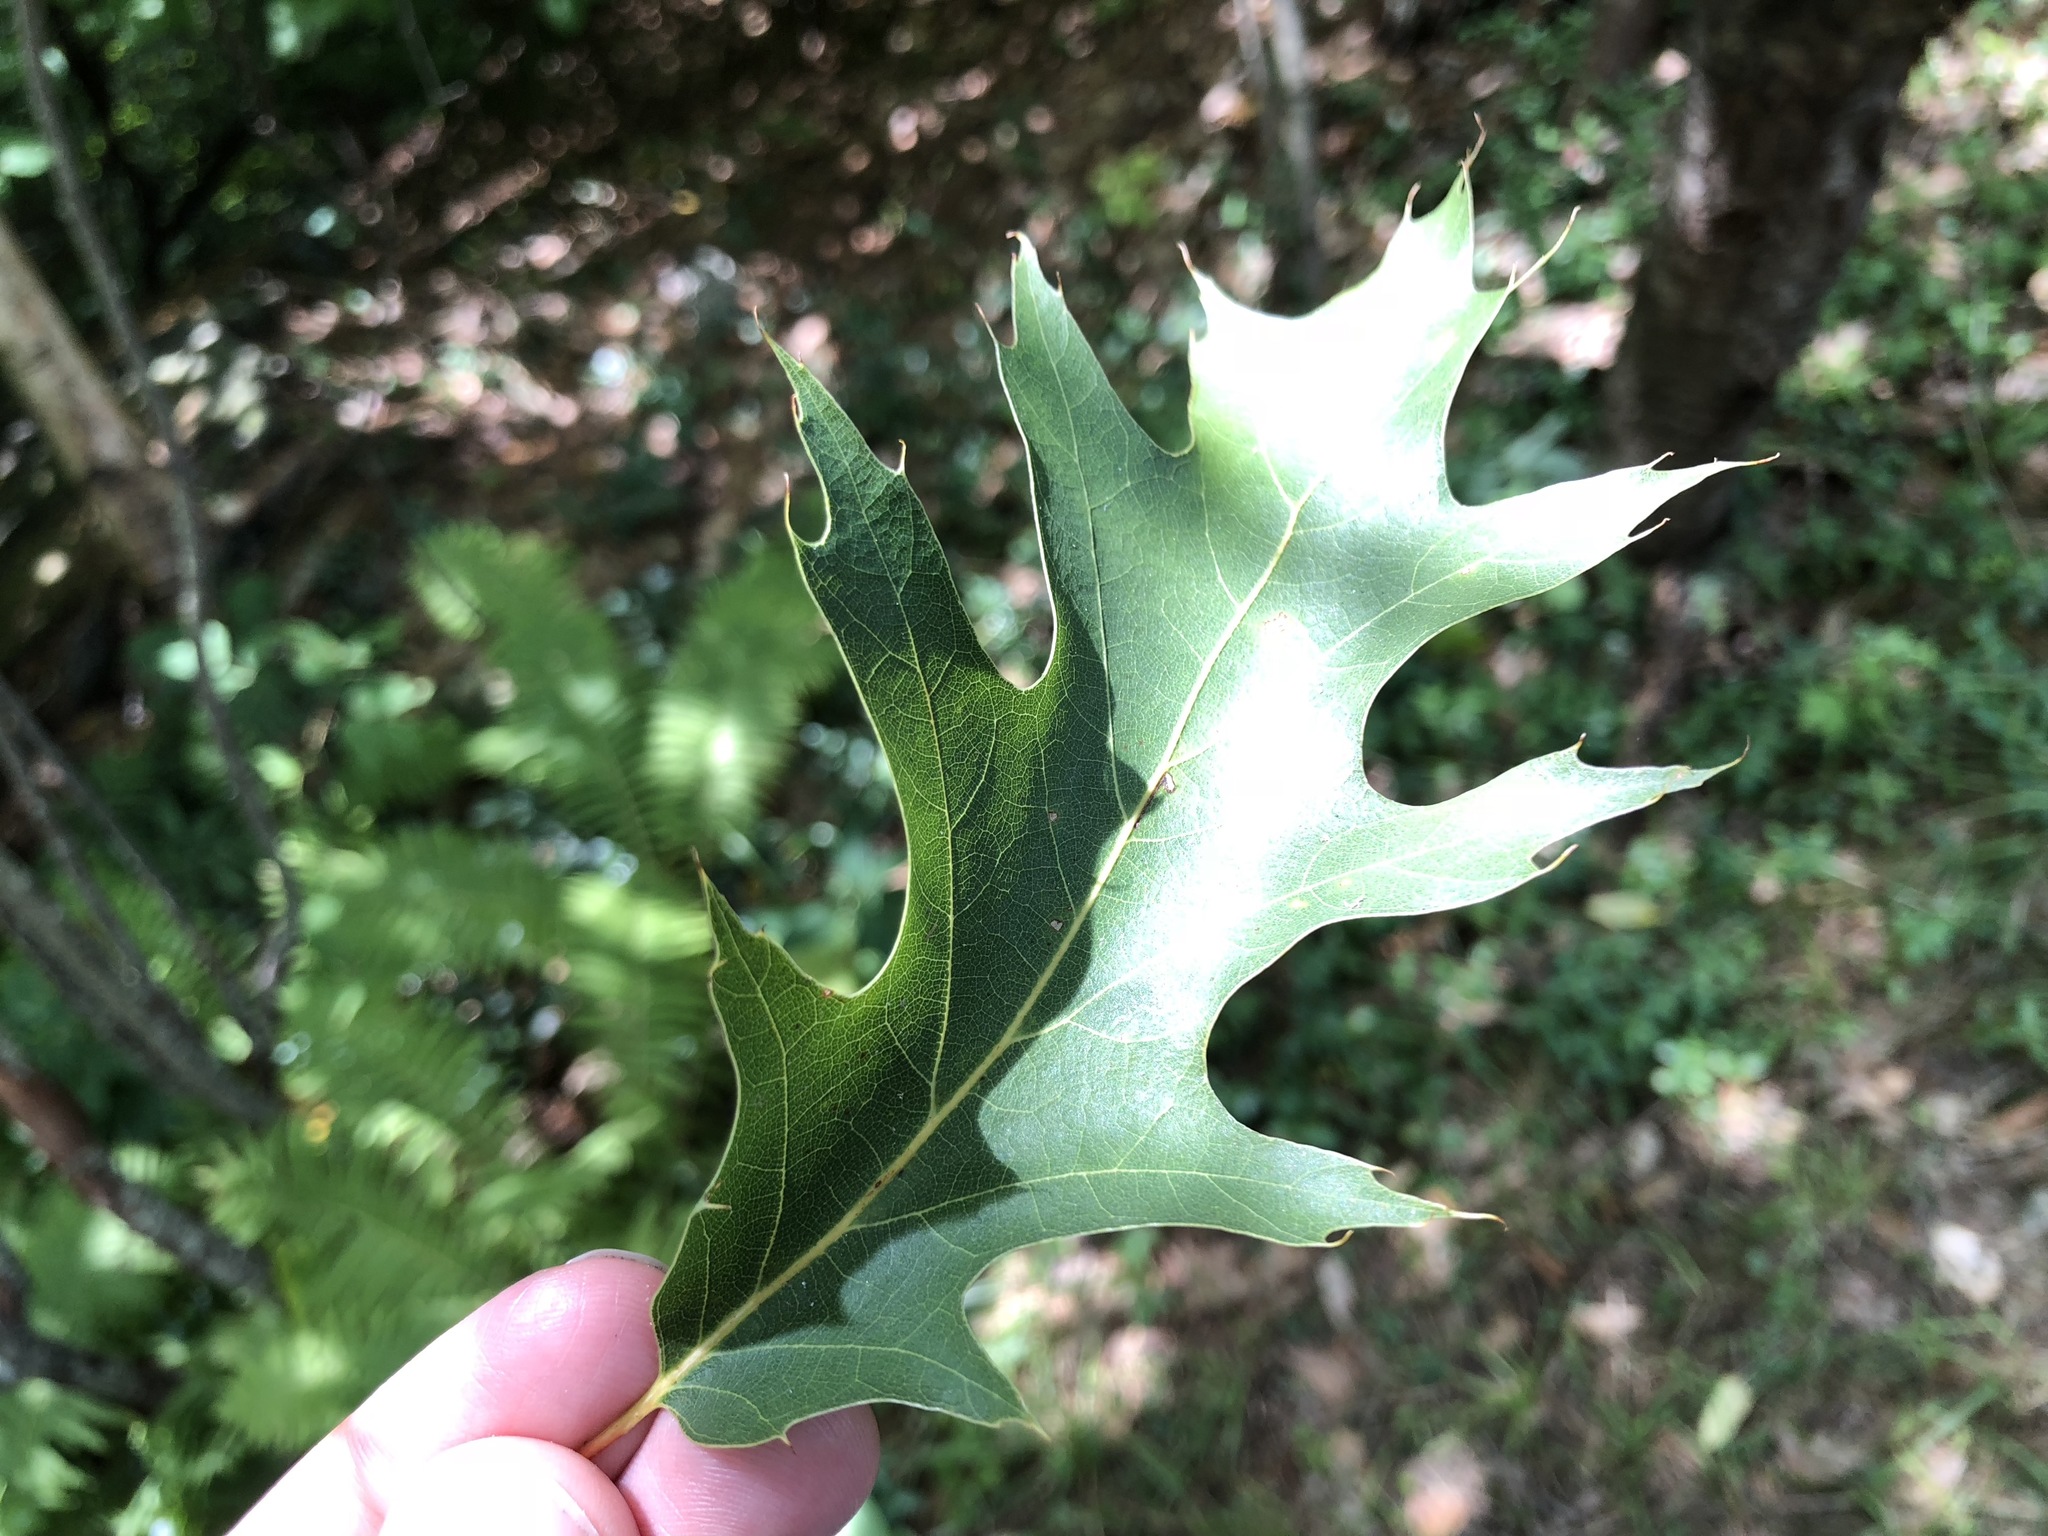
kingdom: Plantae
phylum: Tracheophyta
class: Magnoliopsida
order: Fagales
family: Fagaceae
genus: Quercus
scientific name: Quercus rubra
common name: Red oak
